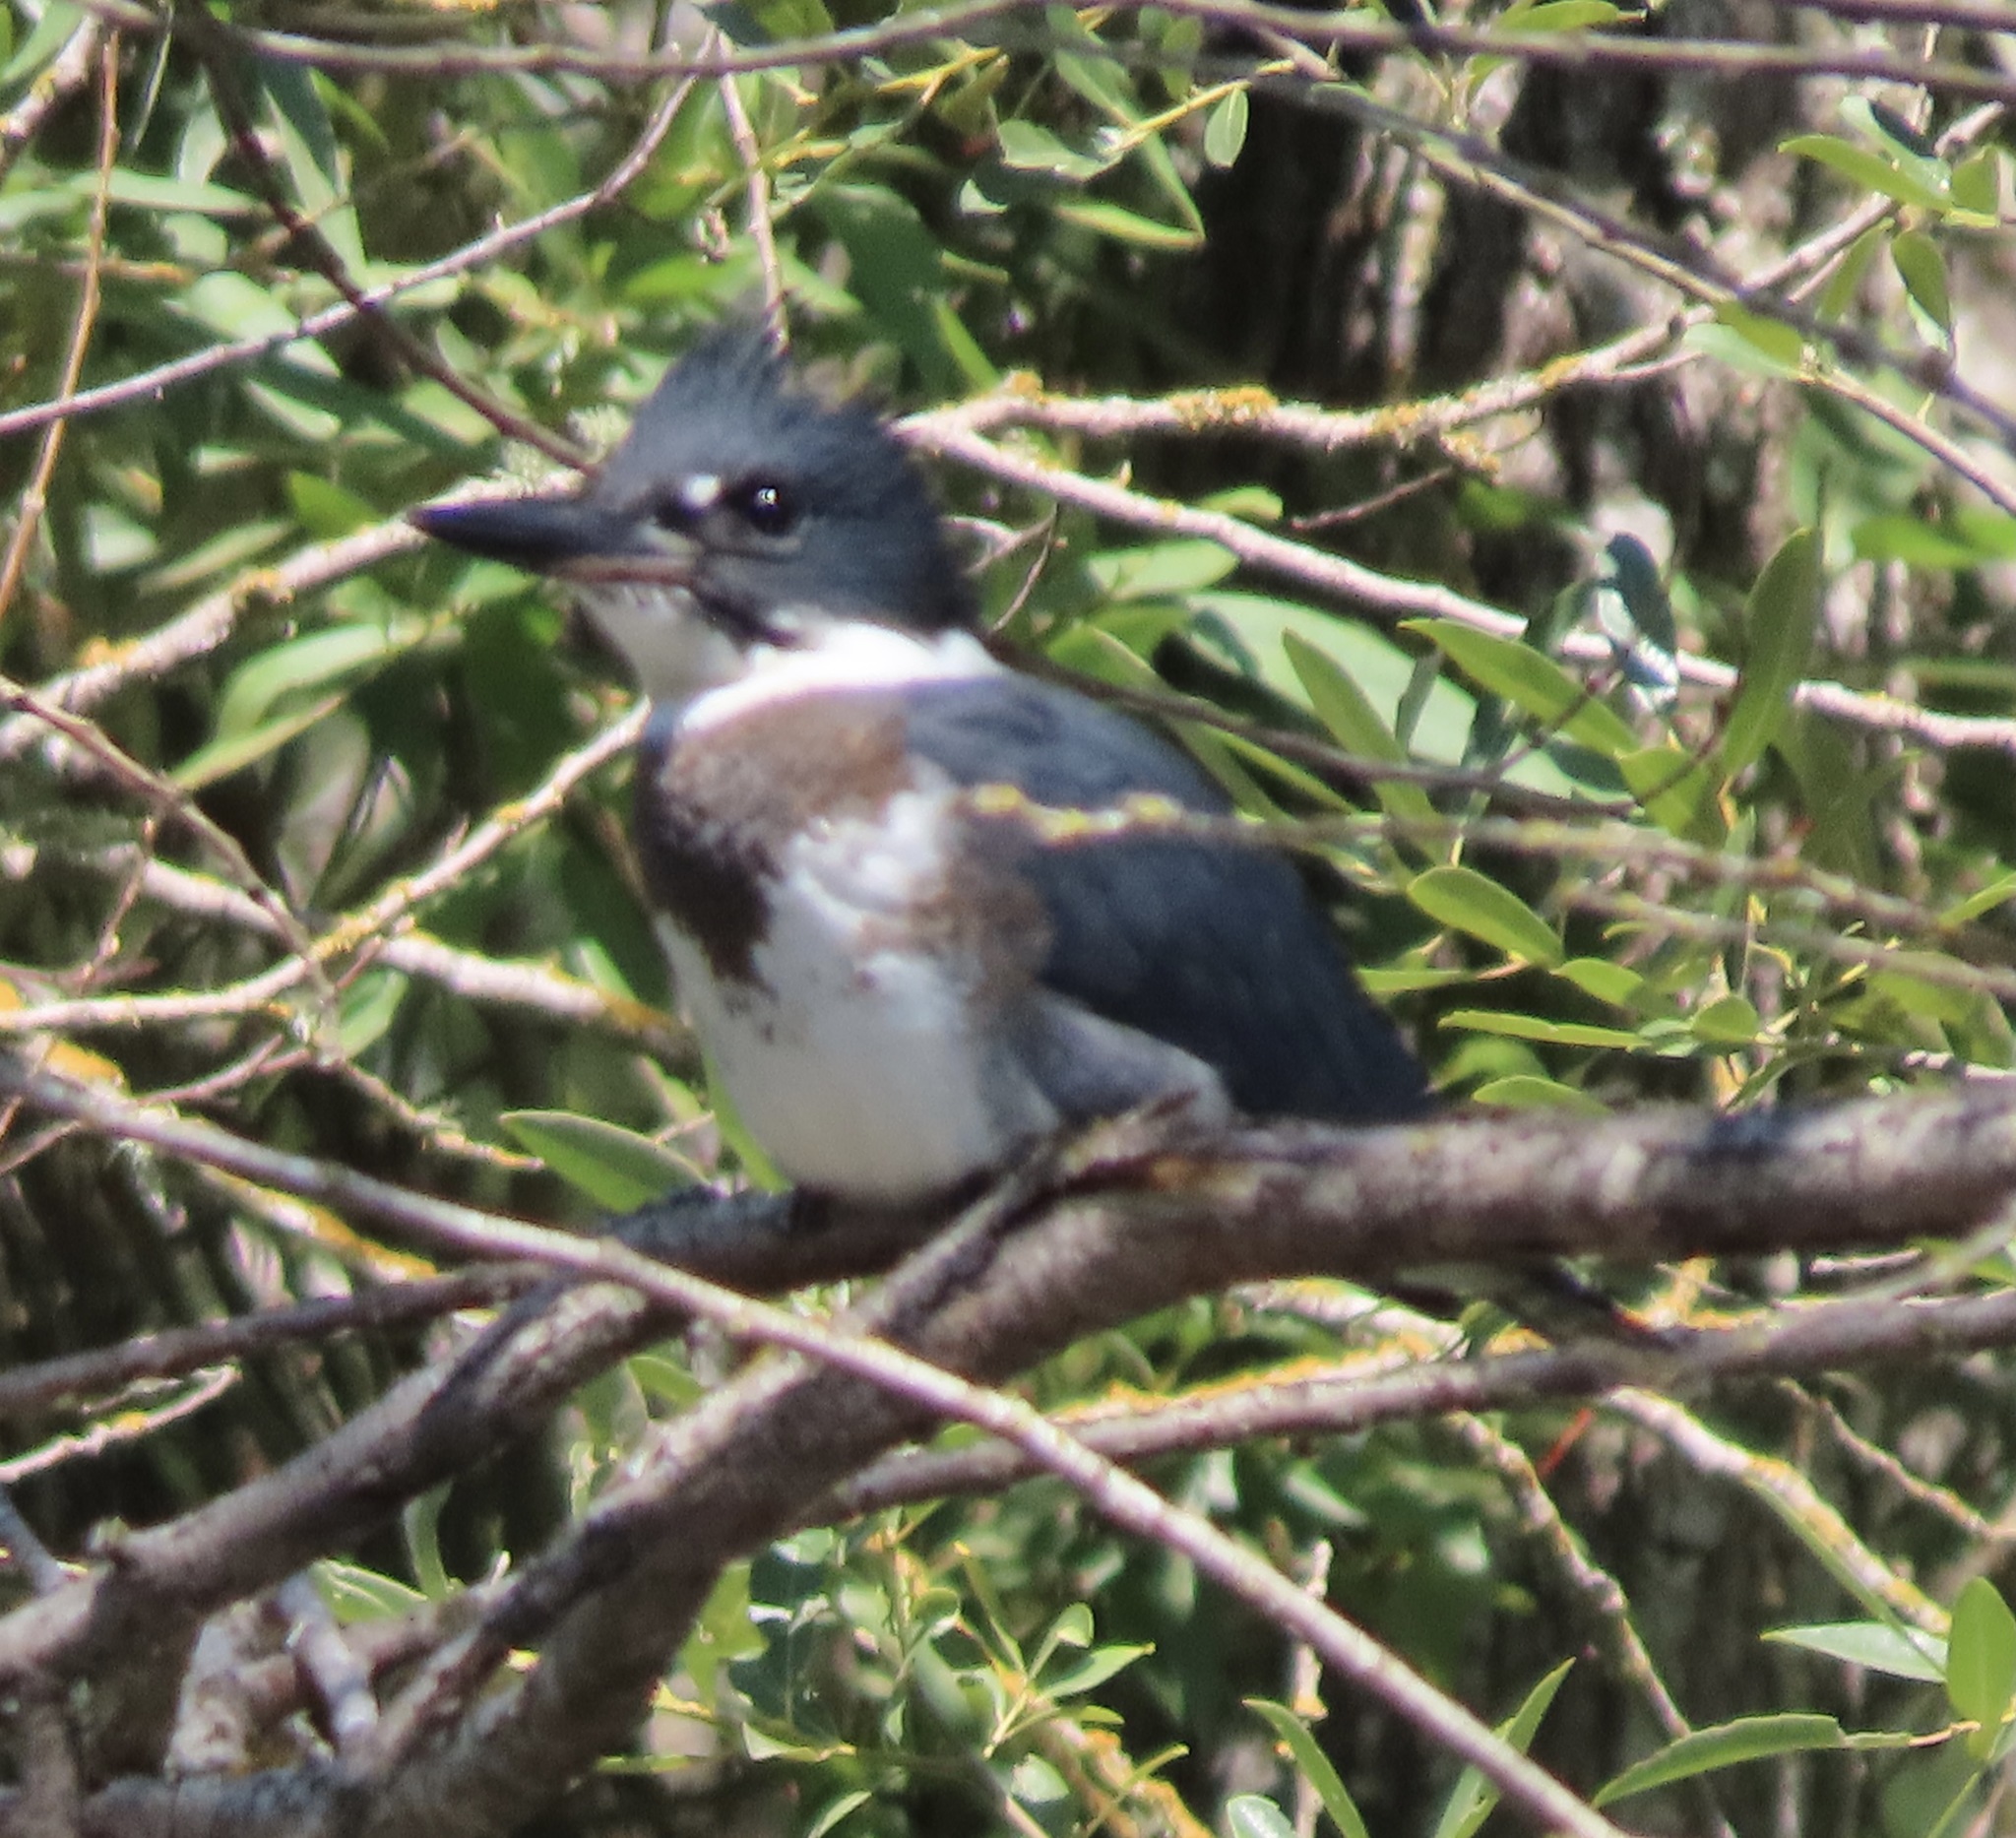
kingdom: Animalia
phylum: Chordata
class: Aves
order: Coraciiformes
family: Alcedinidae
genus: Megaceryle
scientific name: Megaceryle alcyon
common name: Belted kingfisher
